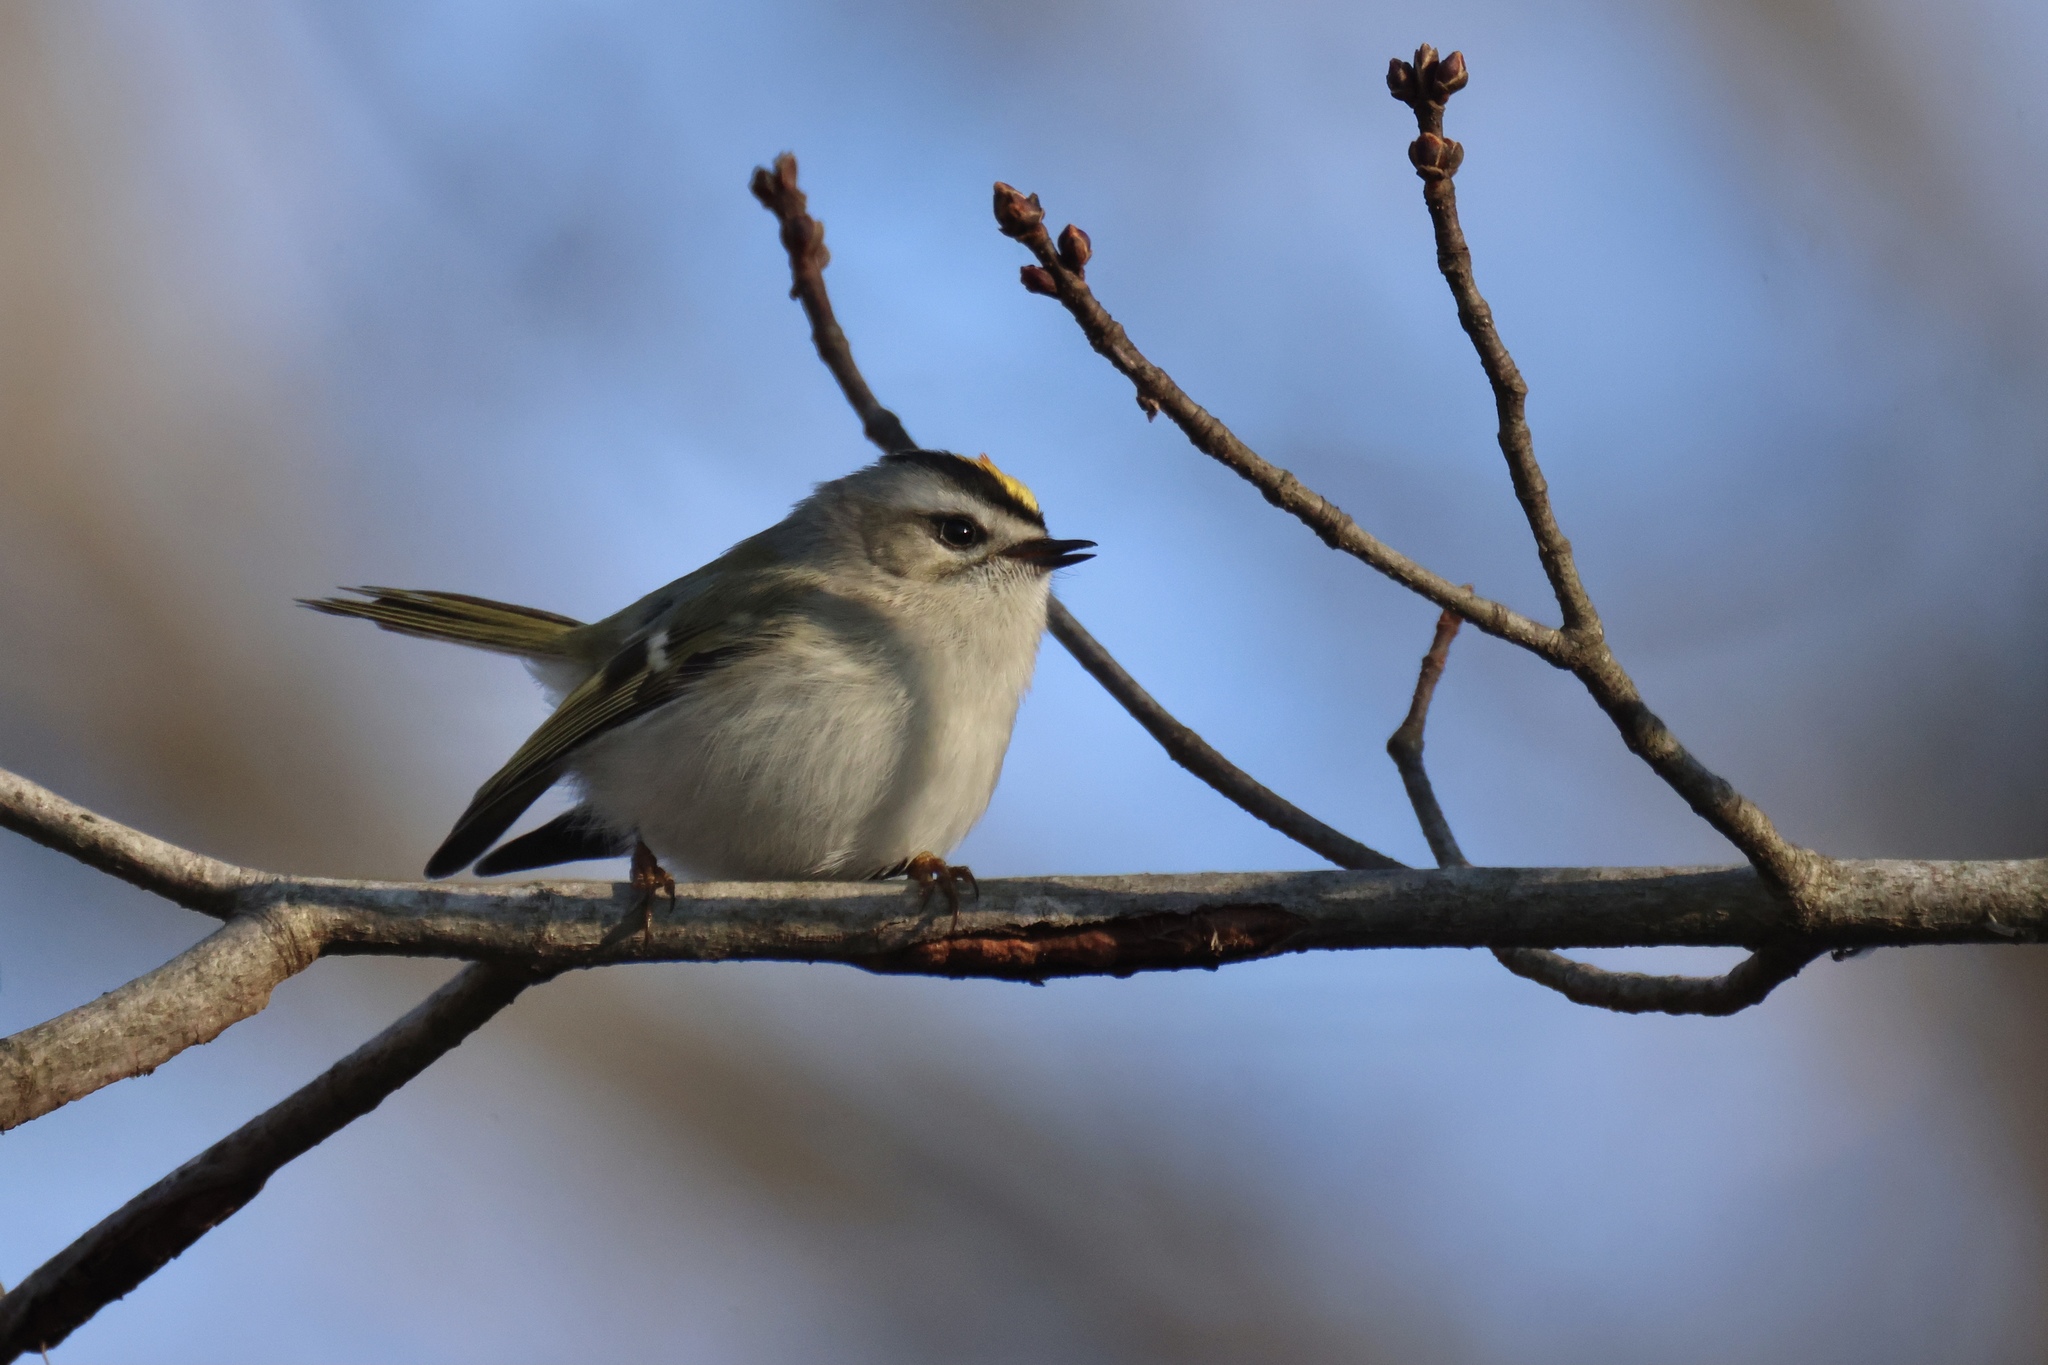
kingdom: Animalia
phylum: Chordata
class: Aves
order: Passeriformes
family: Regulidae
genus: Regulus
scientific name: Regulus satrapa
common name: Golden-crowned kinglet
